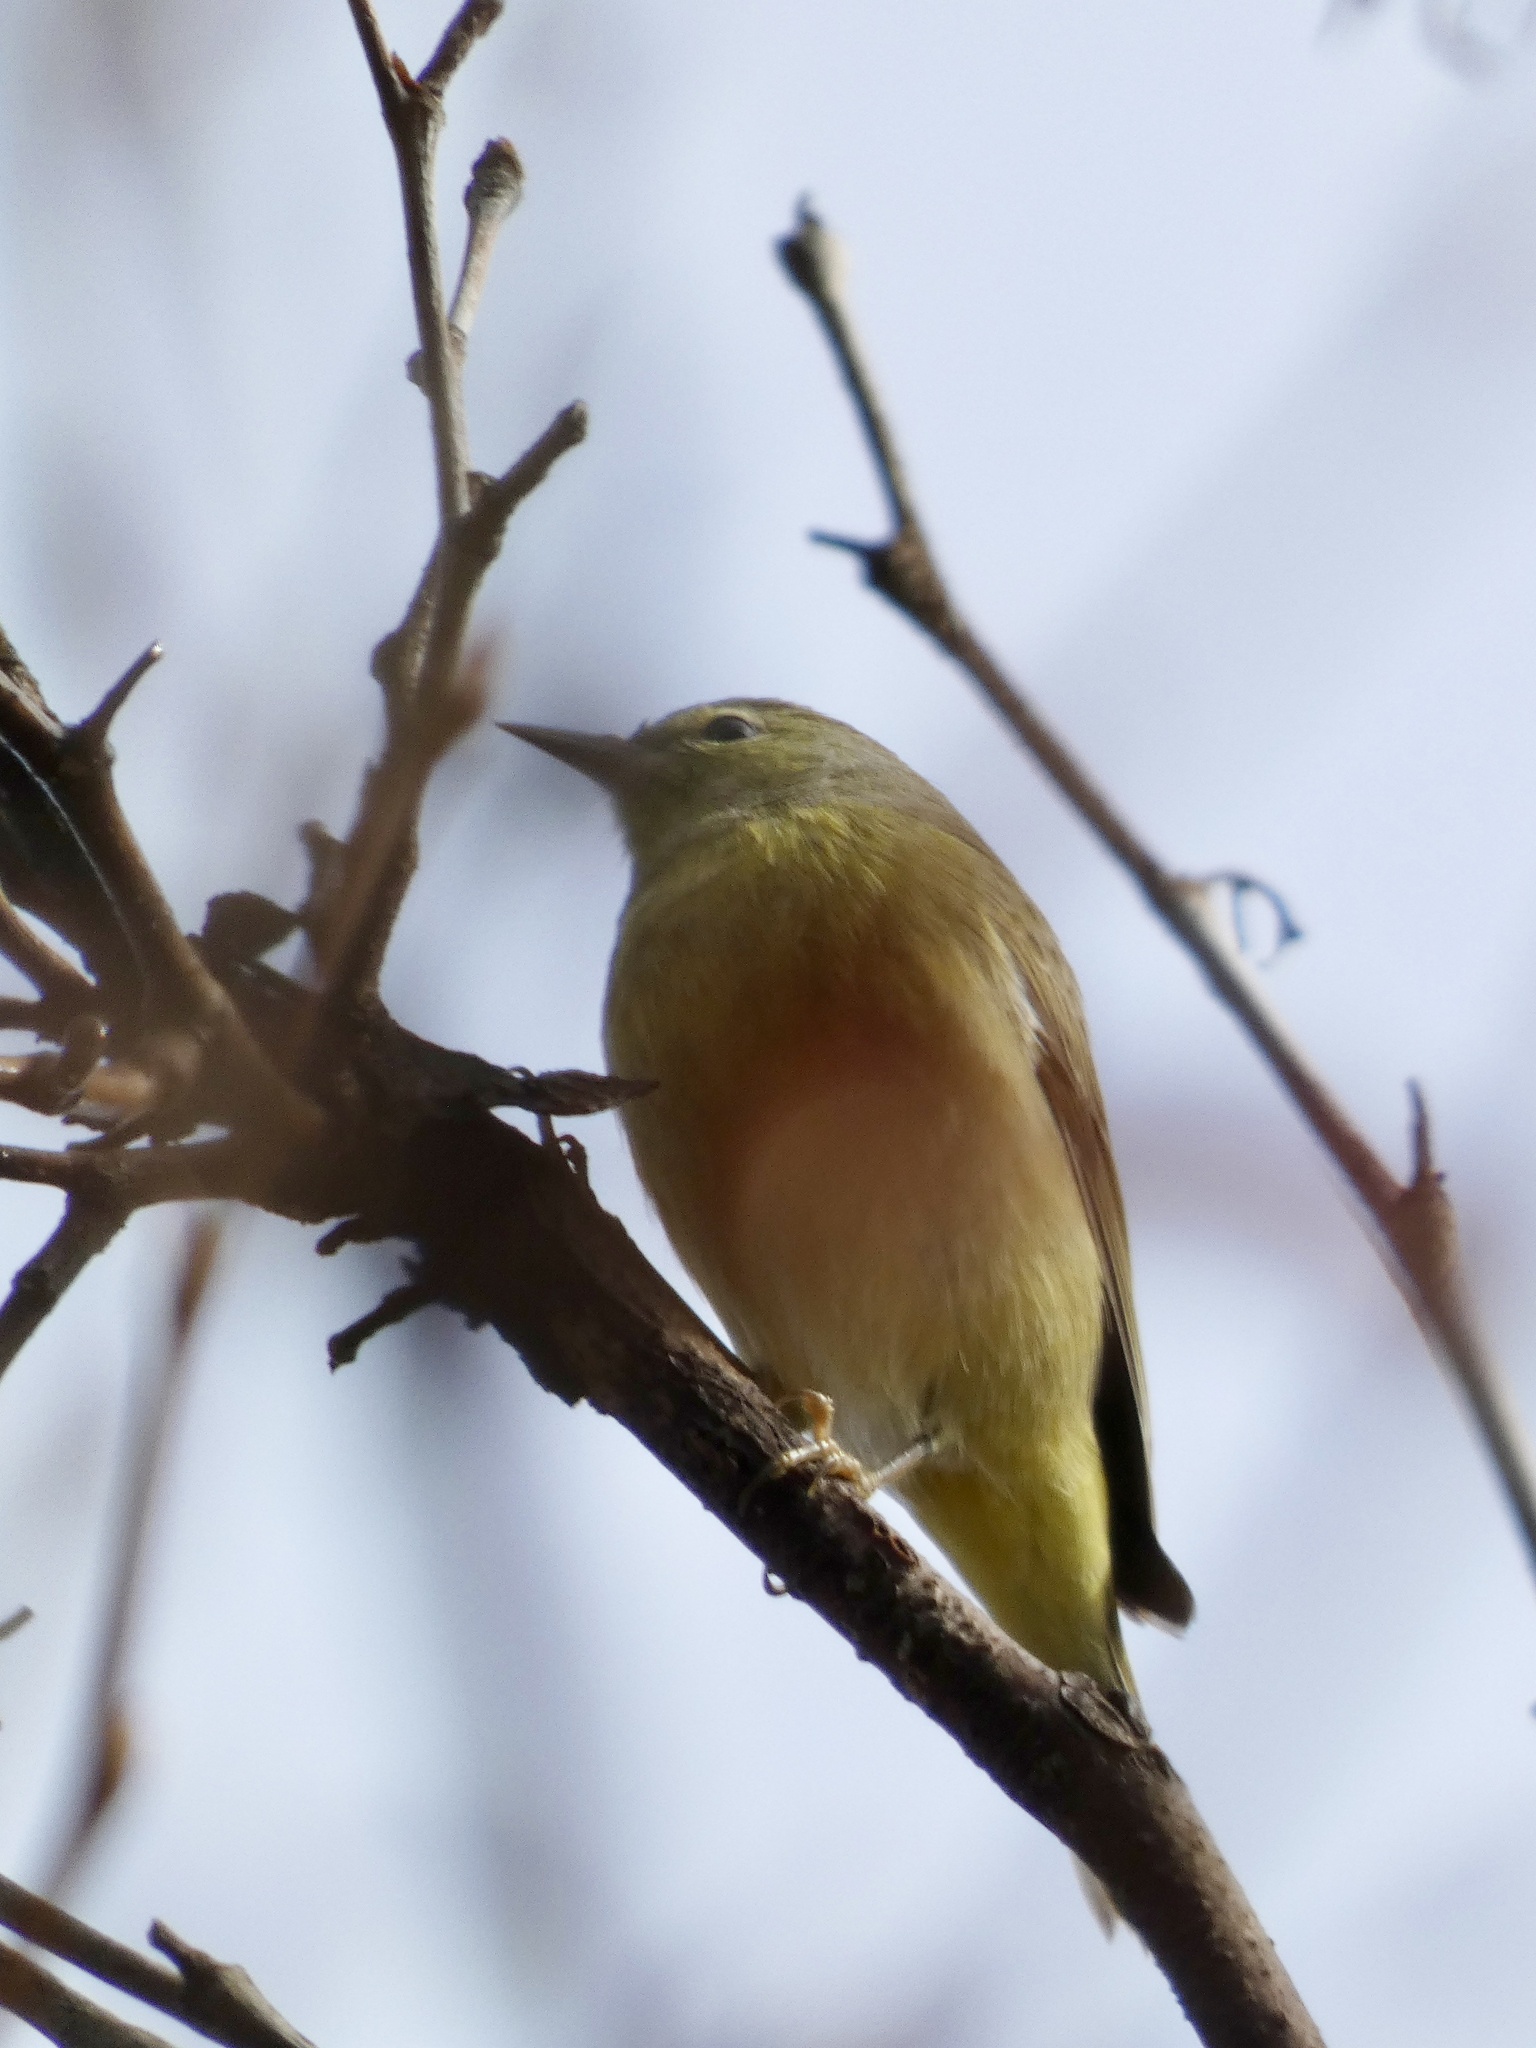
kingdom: Animalia
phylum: Chordata
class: Aves
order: Passeriformes
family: Parulidae
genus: Leiothlypis
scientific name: Leiothlypis celata
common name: Orange-crowned warbler
